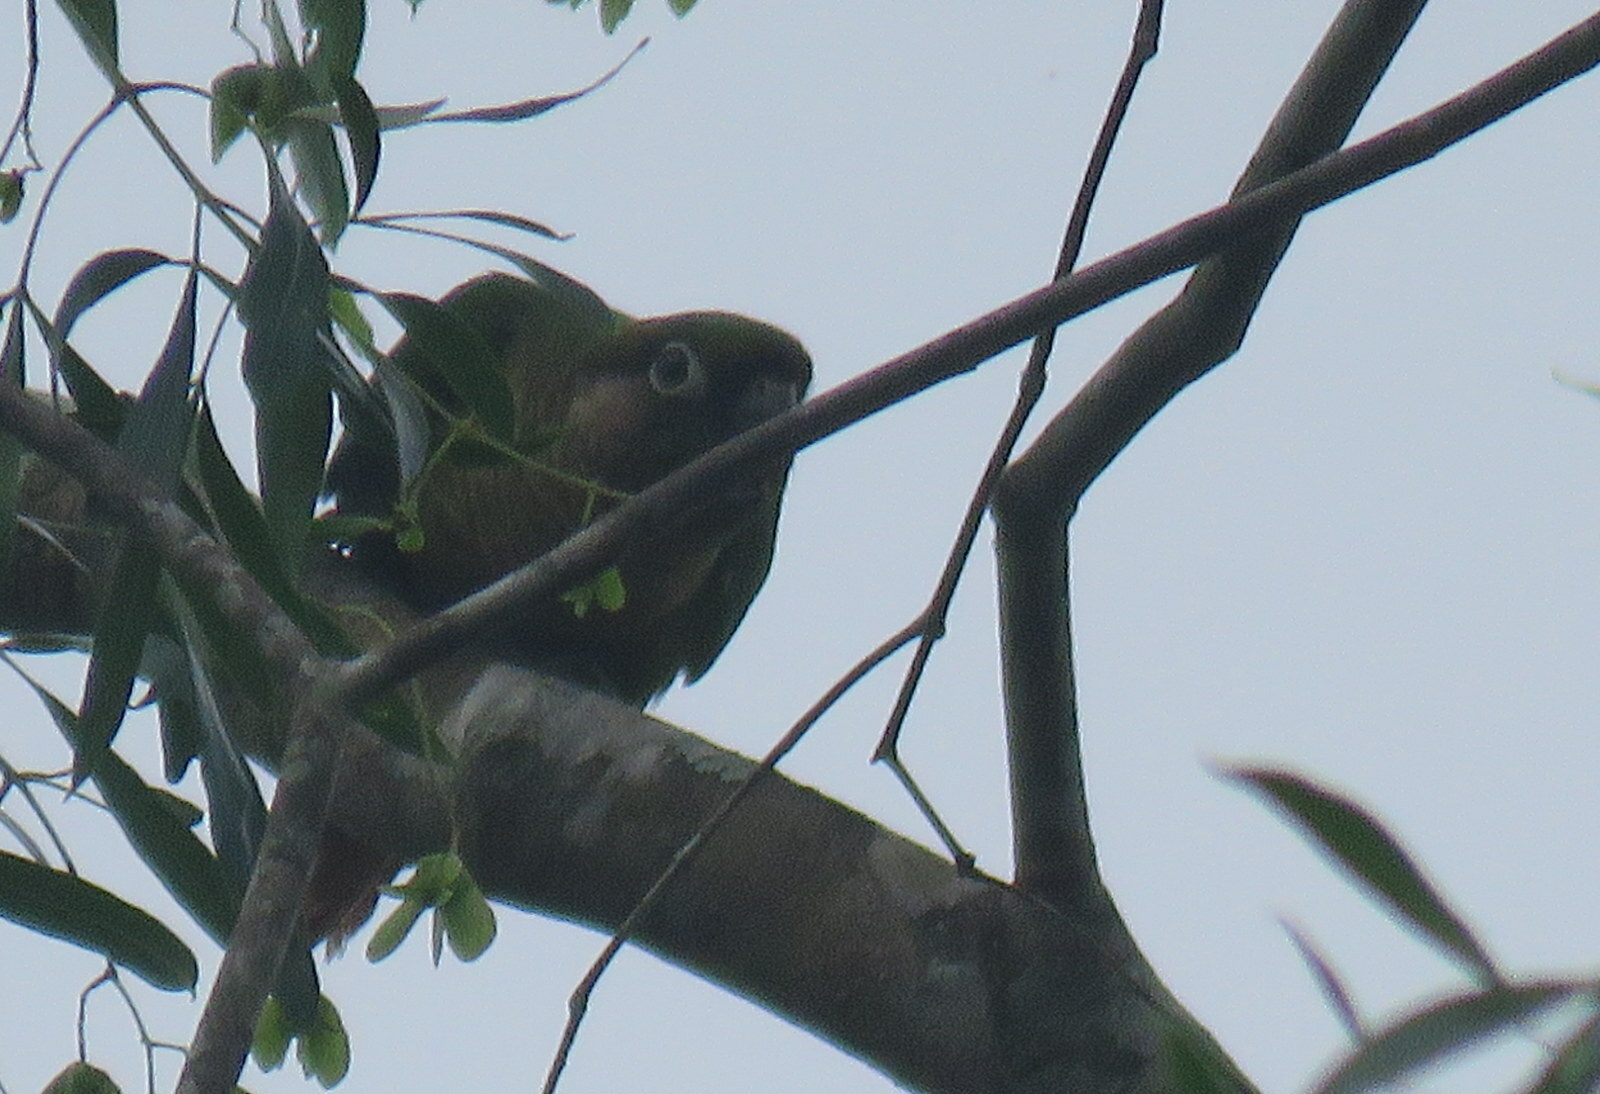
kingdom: Animalia
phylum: Chordata
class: Aves
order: Psittaciformes
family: Psittacidae
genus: Pyrrhura
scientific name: Pyrrhura frontalis
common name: Maroon-bellied parakeet
